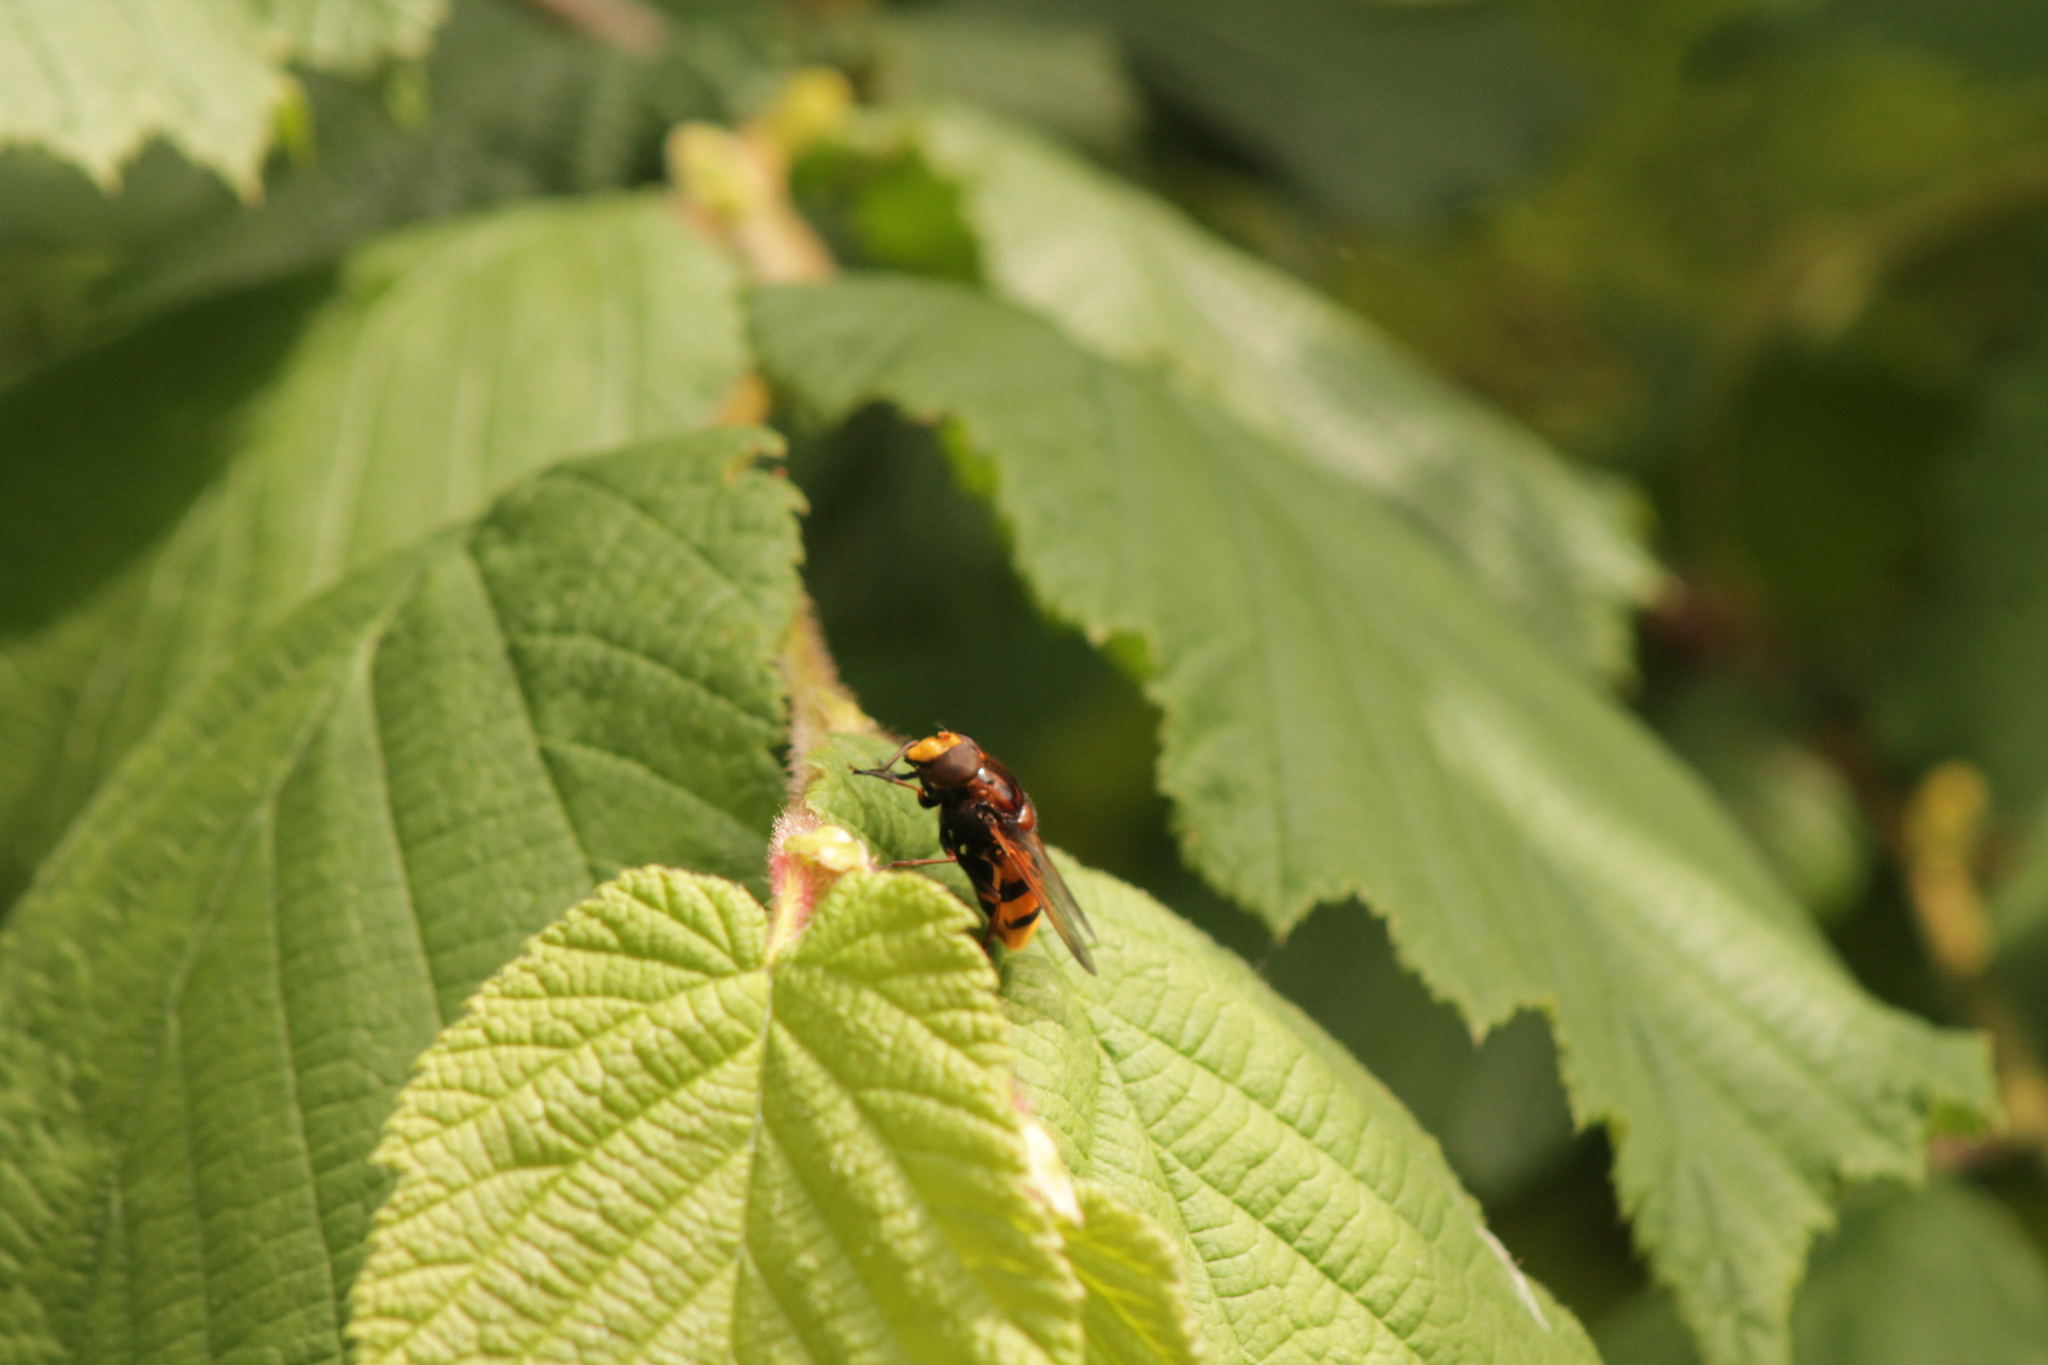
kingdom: Animalia
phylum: Arthropoda
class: Insecta
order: Diptera
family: Syrphidae
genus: Volucella
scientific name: Volucella zonaria
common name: Hornet hoverfly
